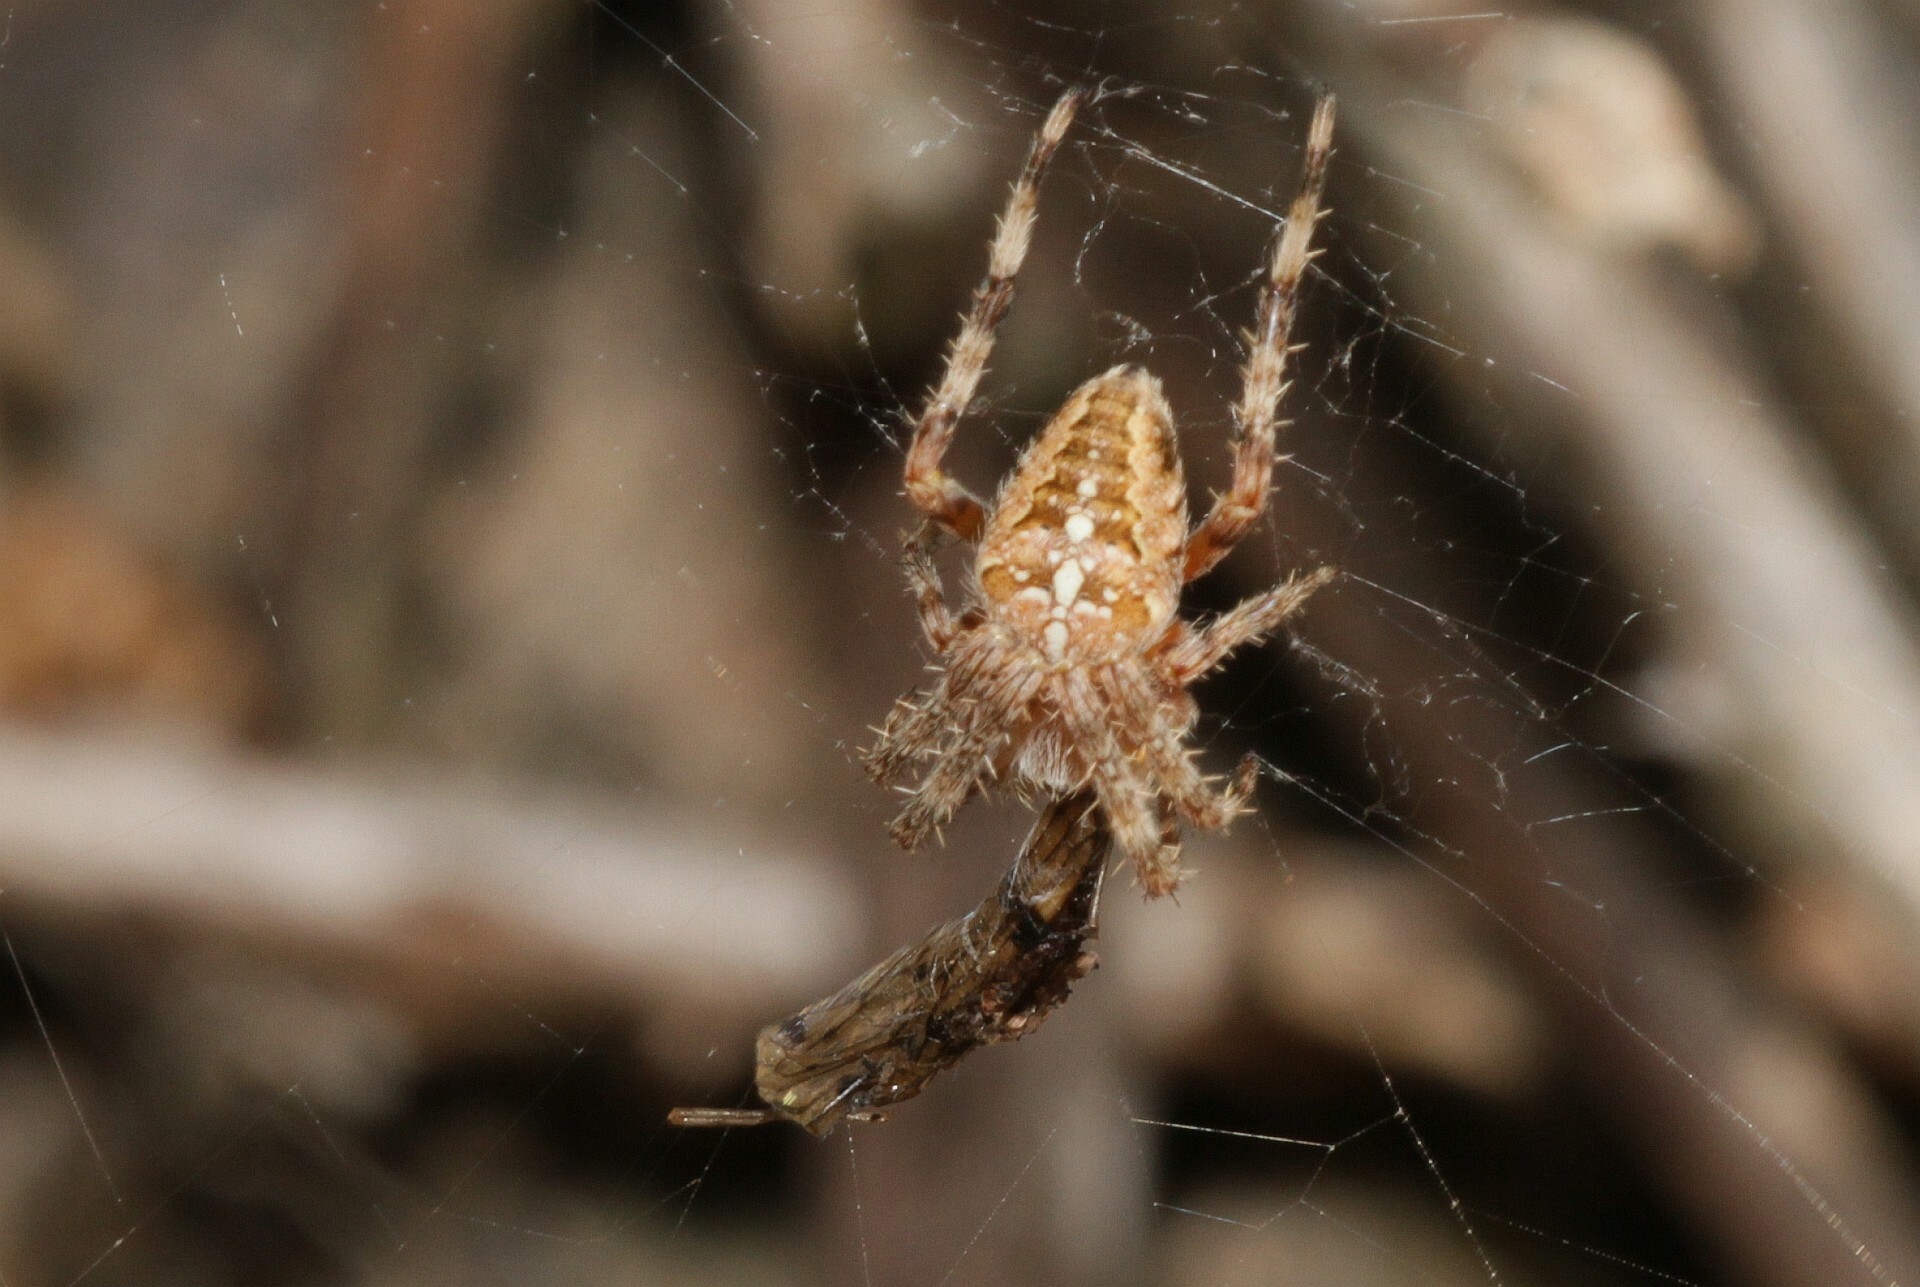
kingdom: Animalia
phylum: Arthropoda
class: Arachnida
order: Araneae
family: Araneidae
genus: Araneus
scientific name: Araneus diadematus
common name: Cross orbweaver
